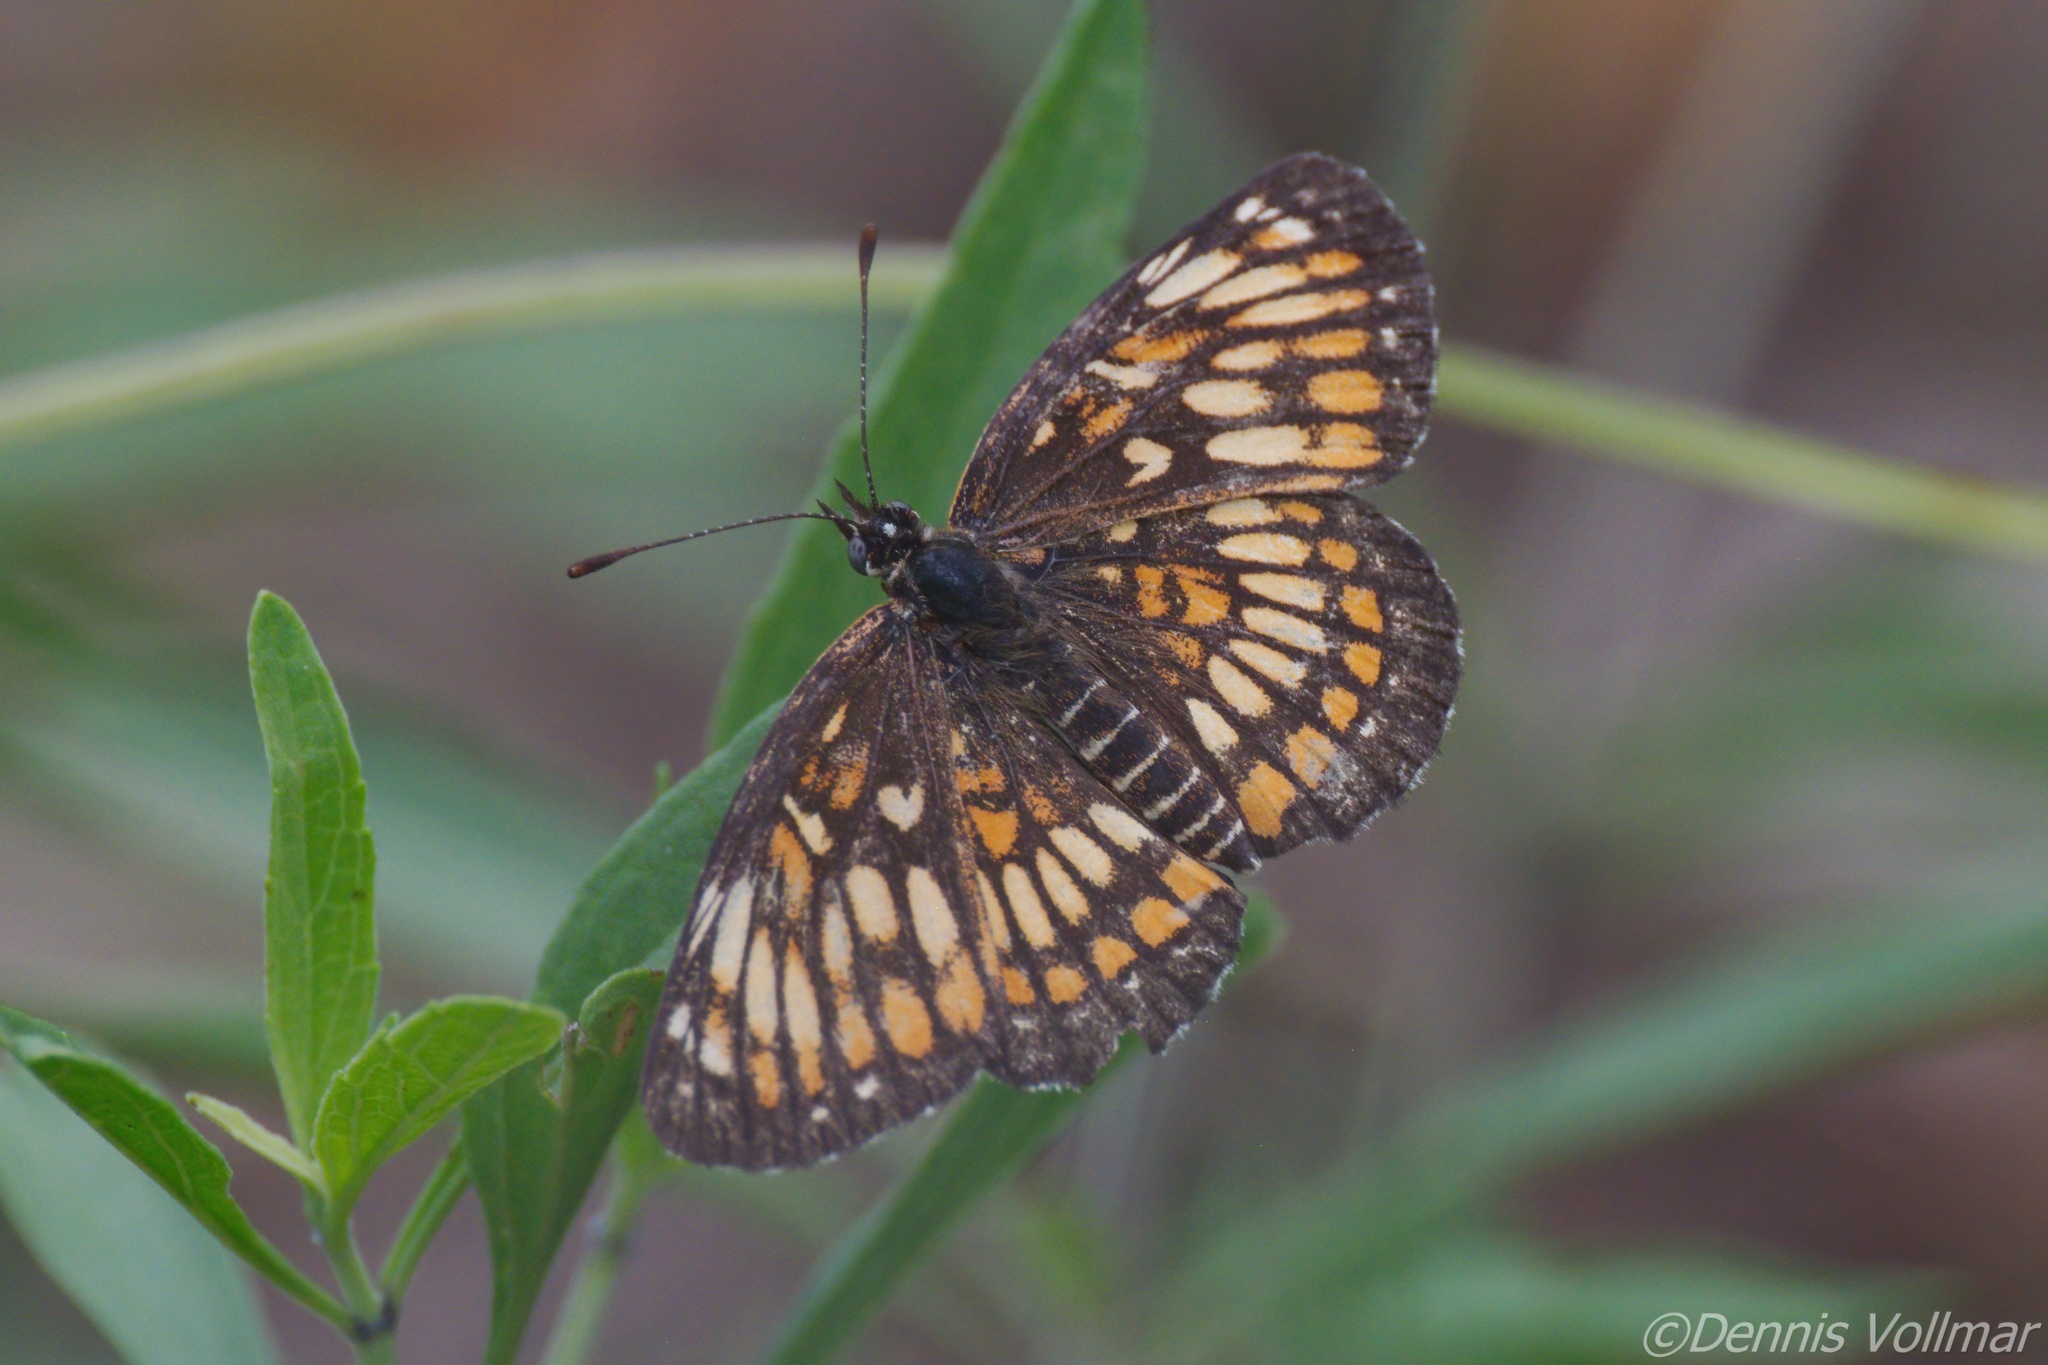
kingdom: Animalia
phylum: Arthropoda
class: Insecta
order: Lepidoptera
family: Nymphalidae
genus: Thessalia
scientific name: Thessalia theona
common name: Nymphalid moth
